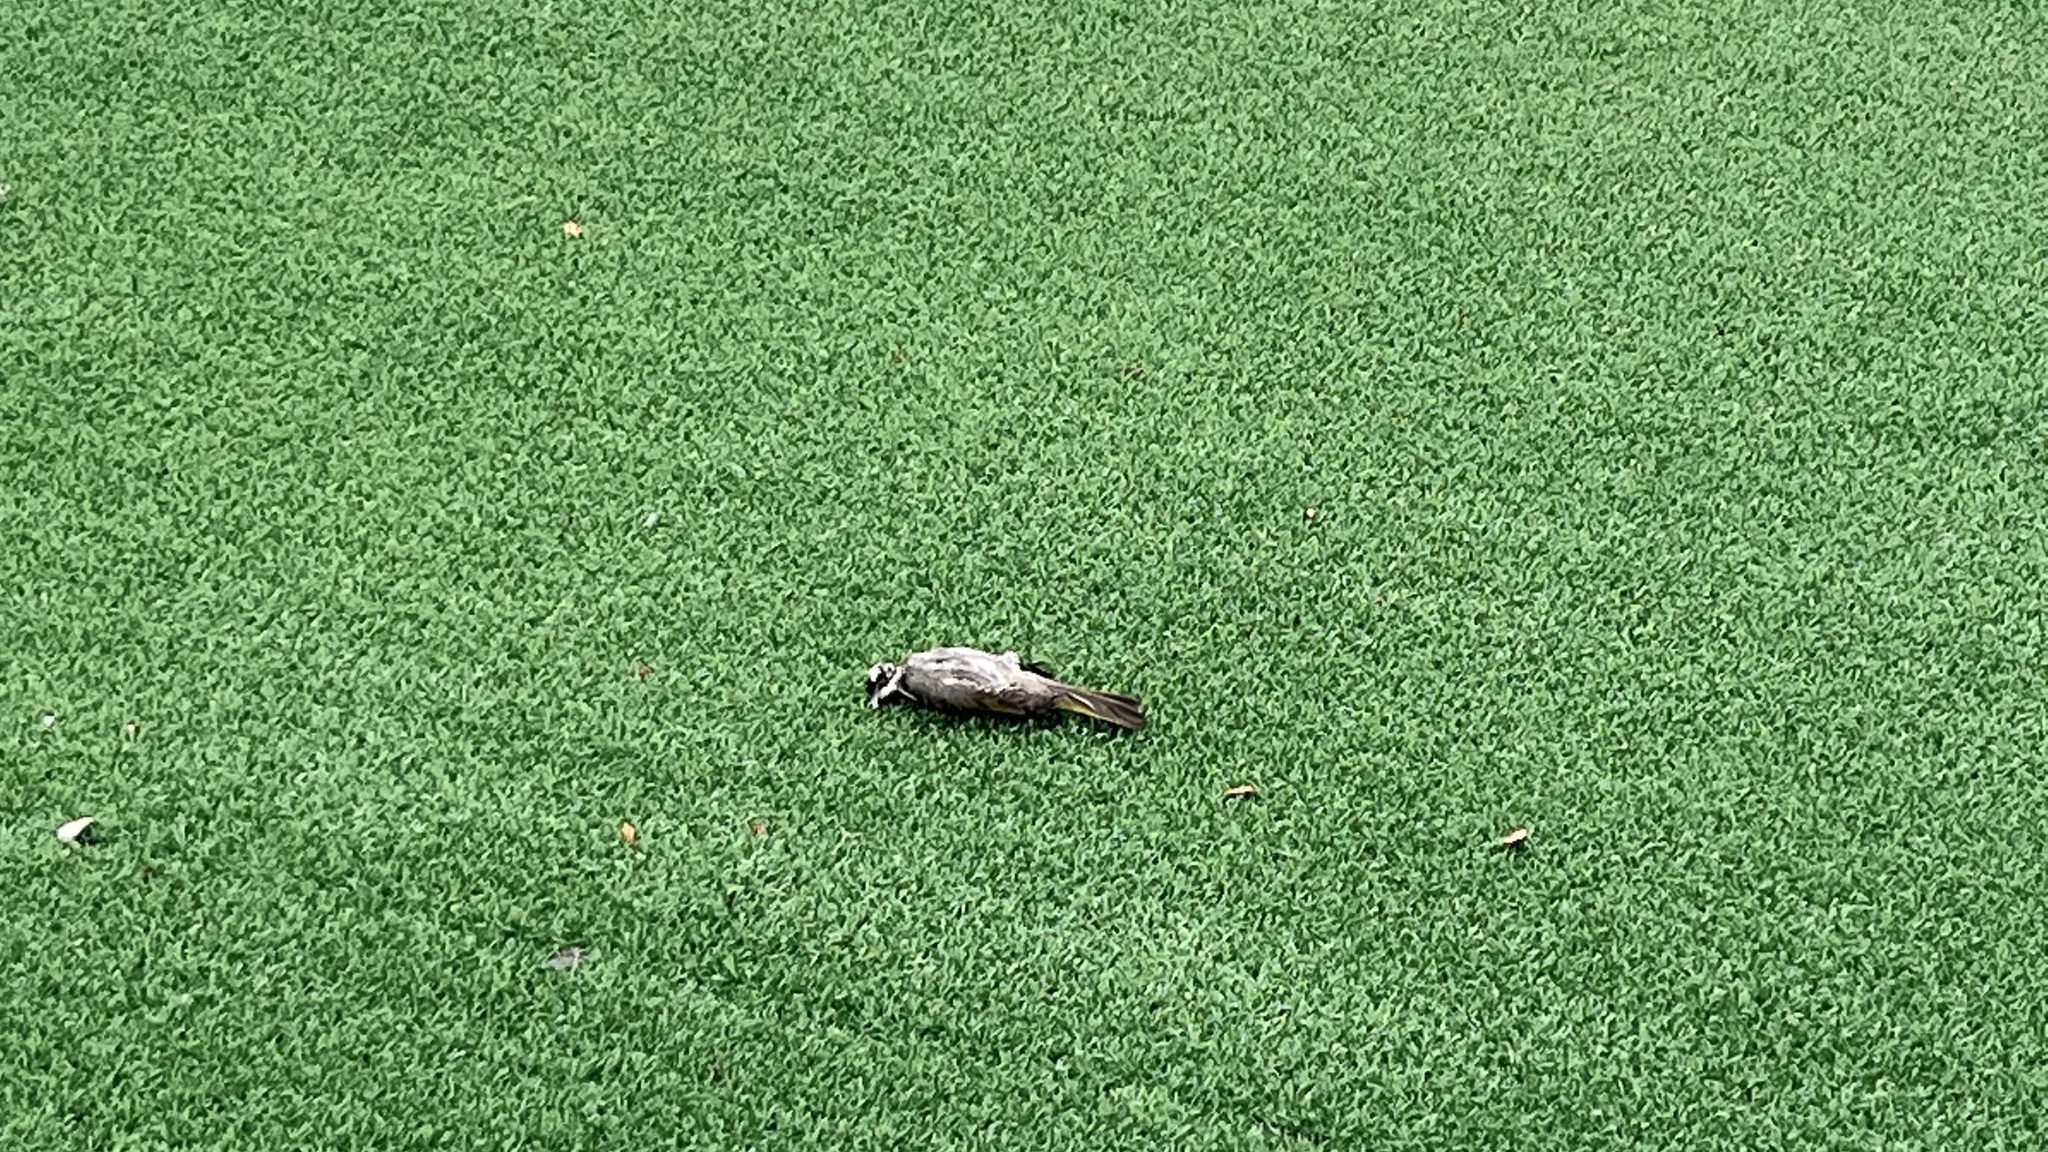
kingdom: Animalia
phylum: Chordata
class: Aves
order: Passeriformes
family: Pycnonotidae
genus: Pycnonotus
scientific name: Pycnonotus sinensis
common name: Light-vented bulbul
